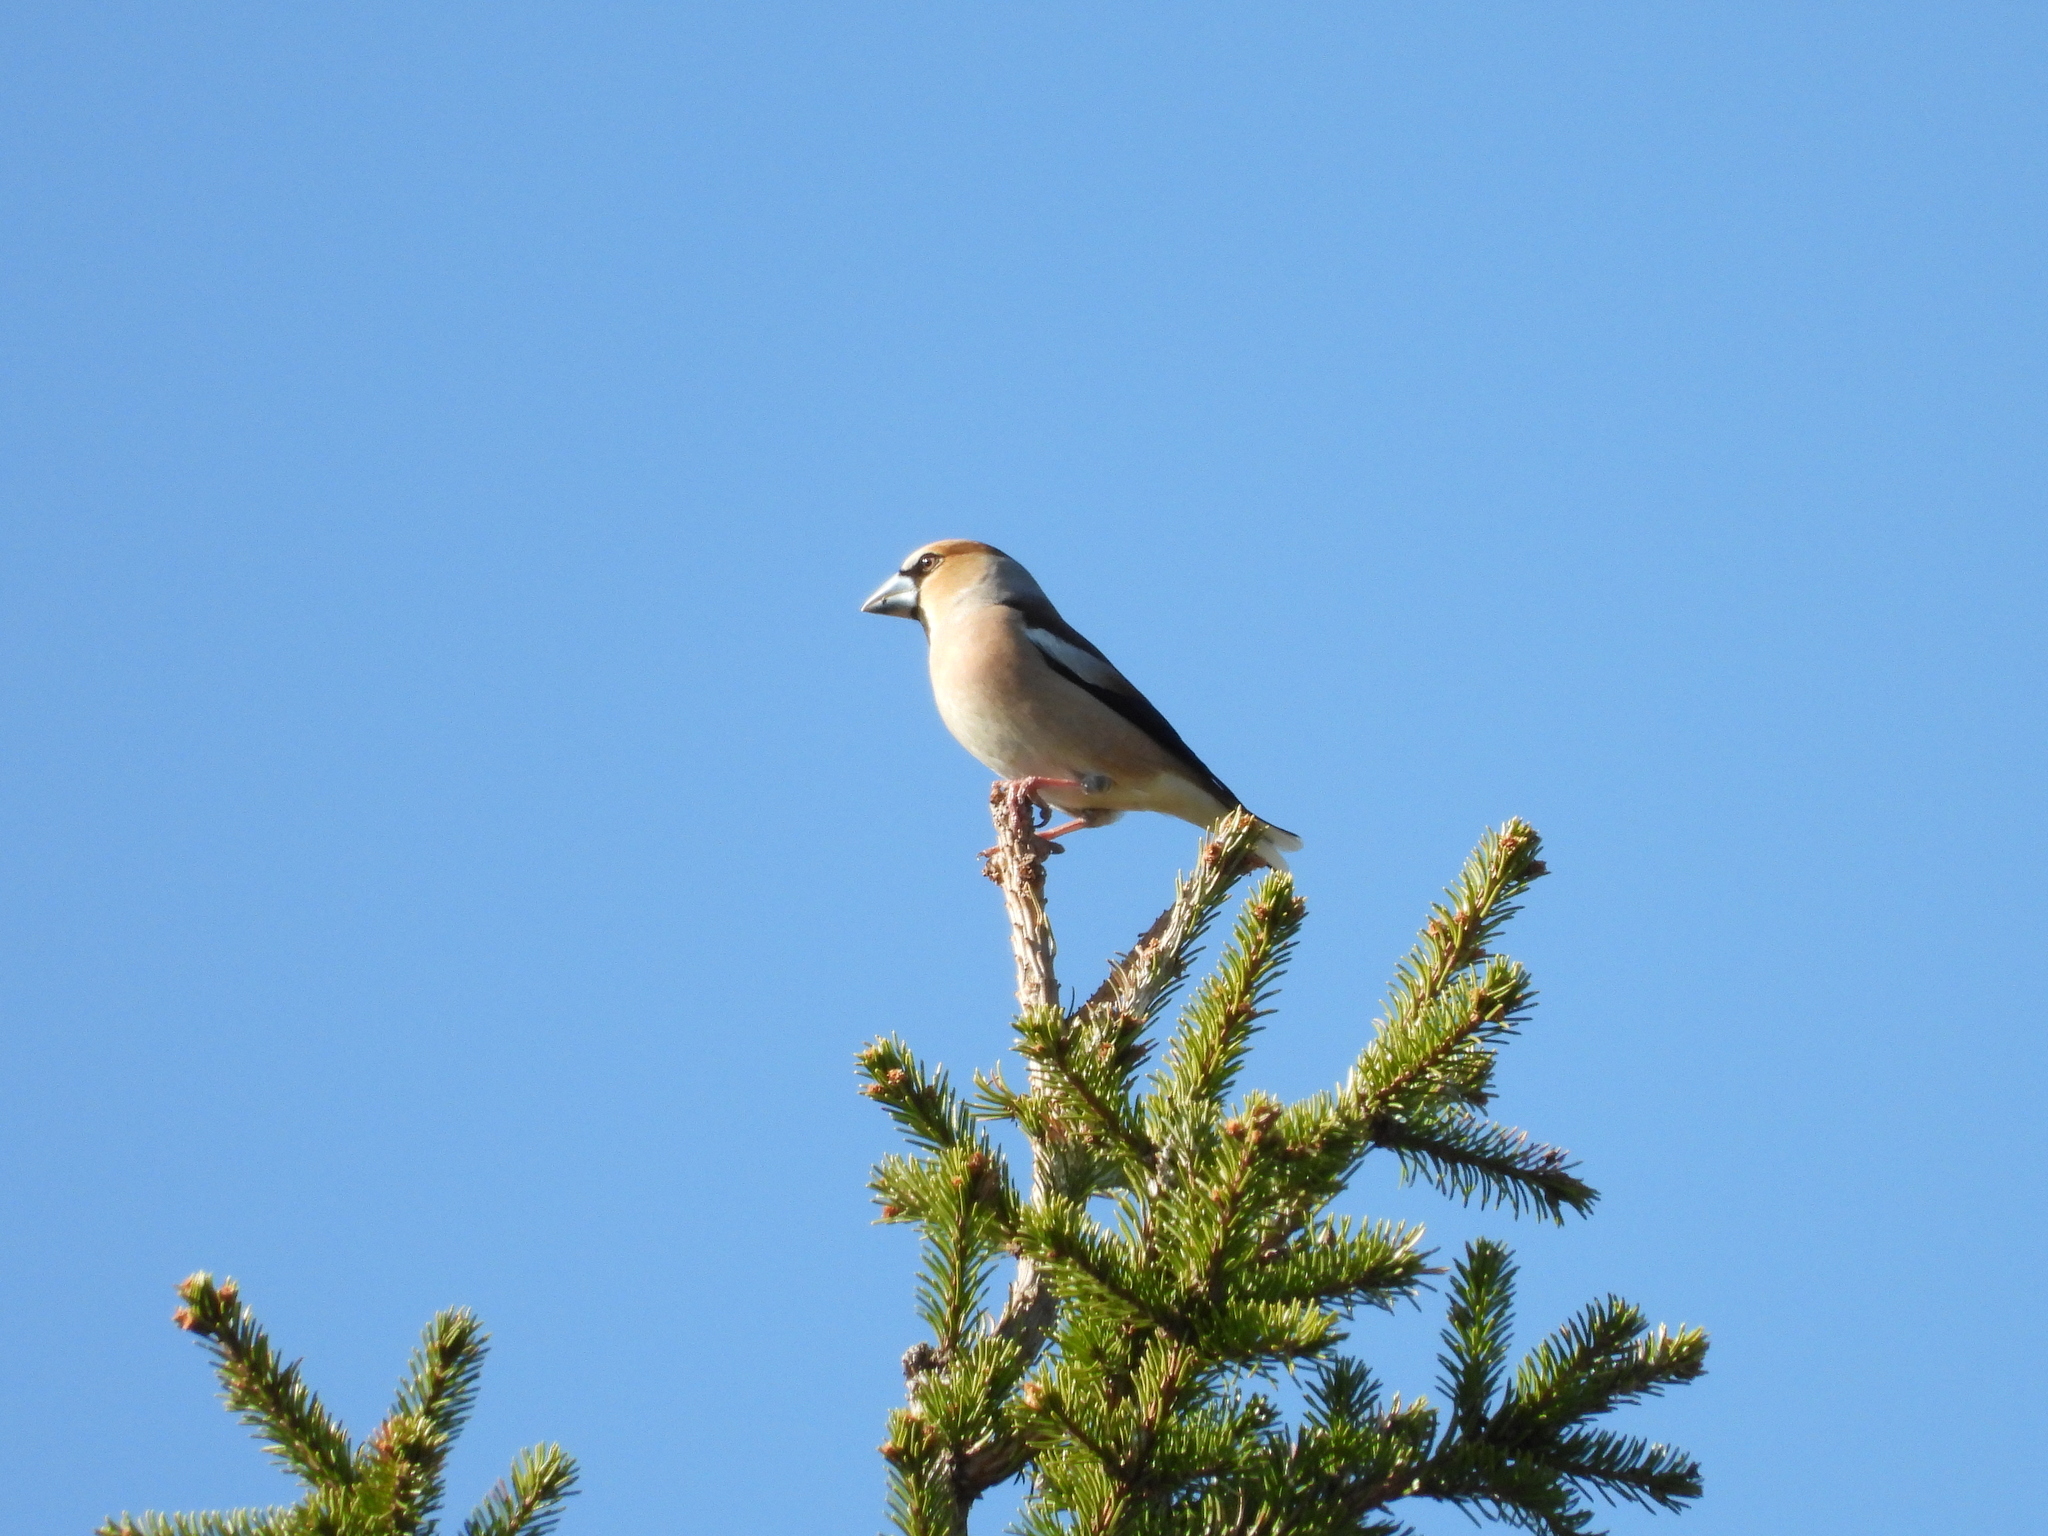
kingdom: Animalia
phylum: Chordata
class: Aves
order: Passeriformes
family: Fringillidae
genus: Coccothraustes
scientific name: Coccothraustes coccothraustes
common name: Hawfinch
